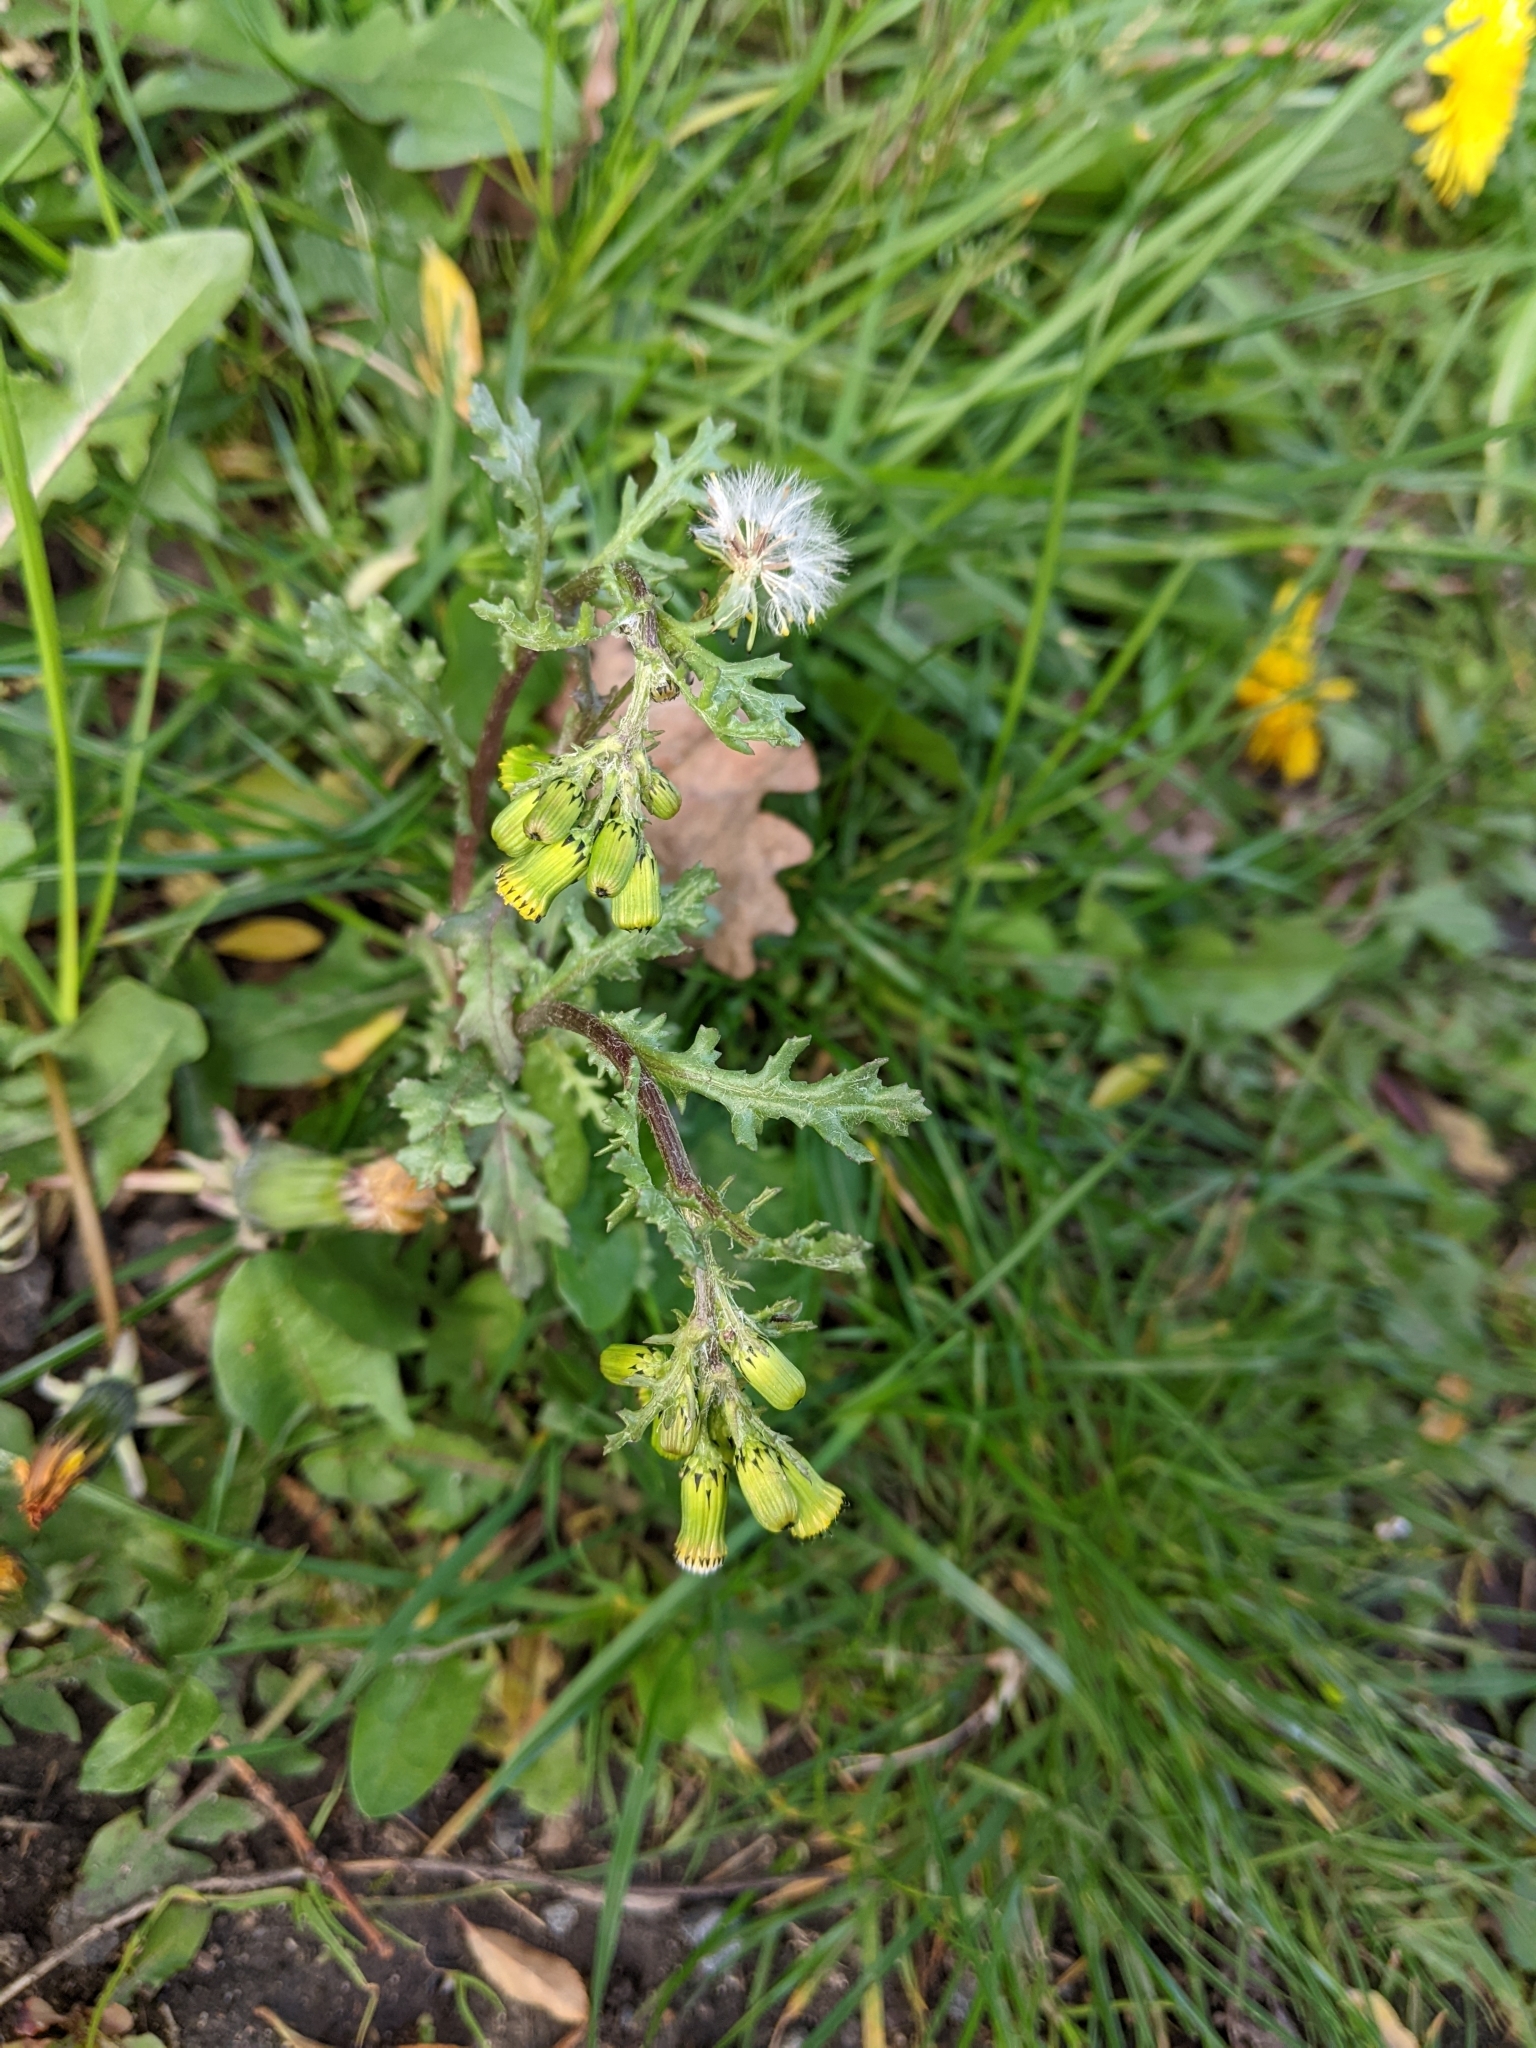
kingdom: Plantae
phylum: Tracheophyta
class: Magnoliopsida
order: Asterales
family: Asteraceae
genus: Senecio
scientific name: Senecio vulgaris
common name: Old-man-in-the-spring
